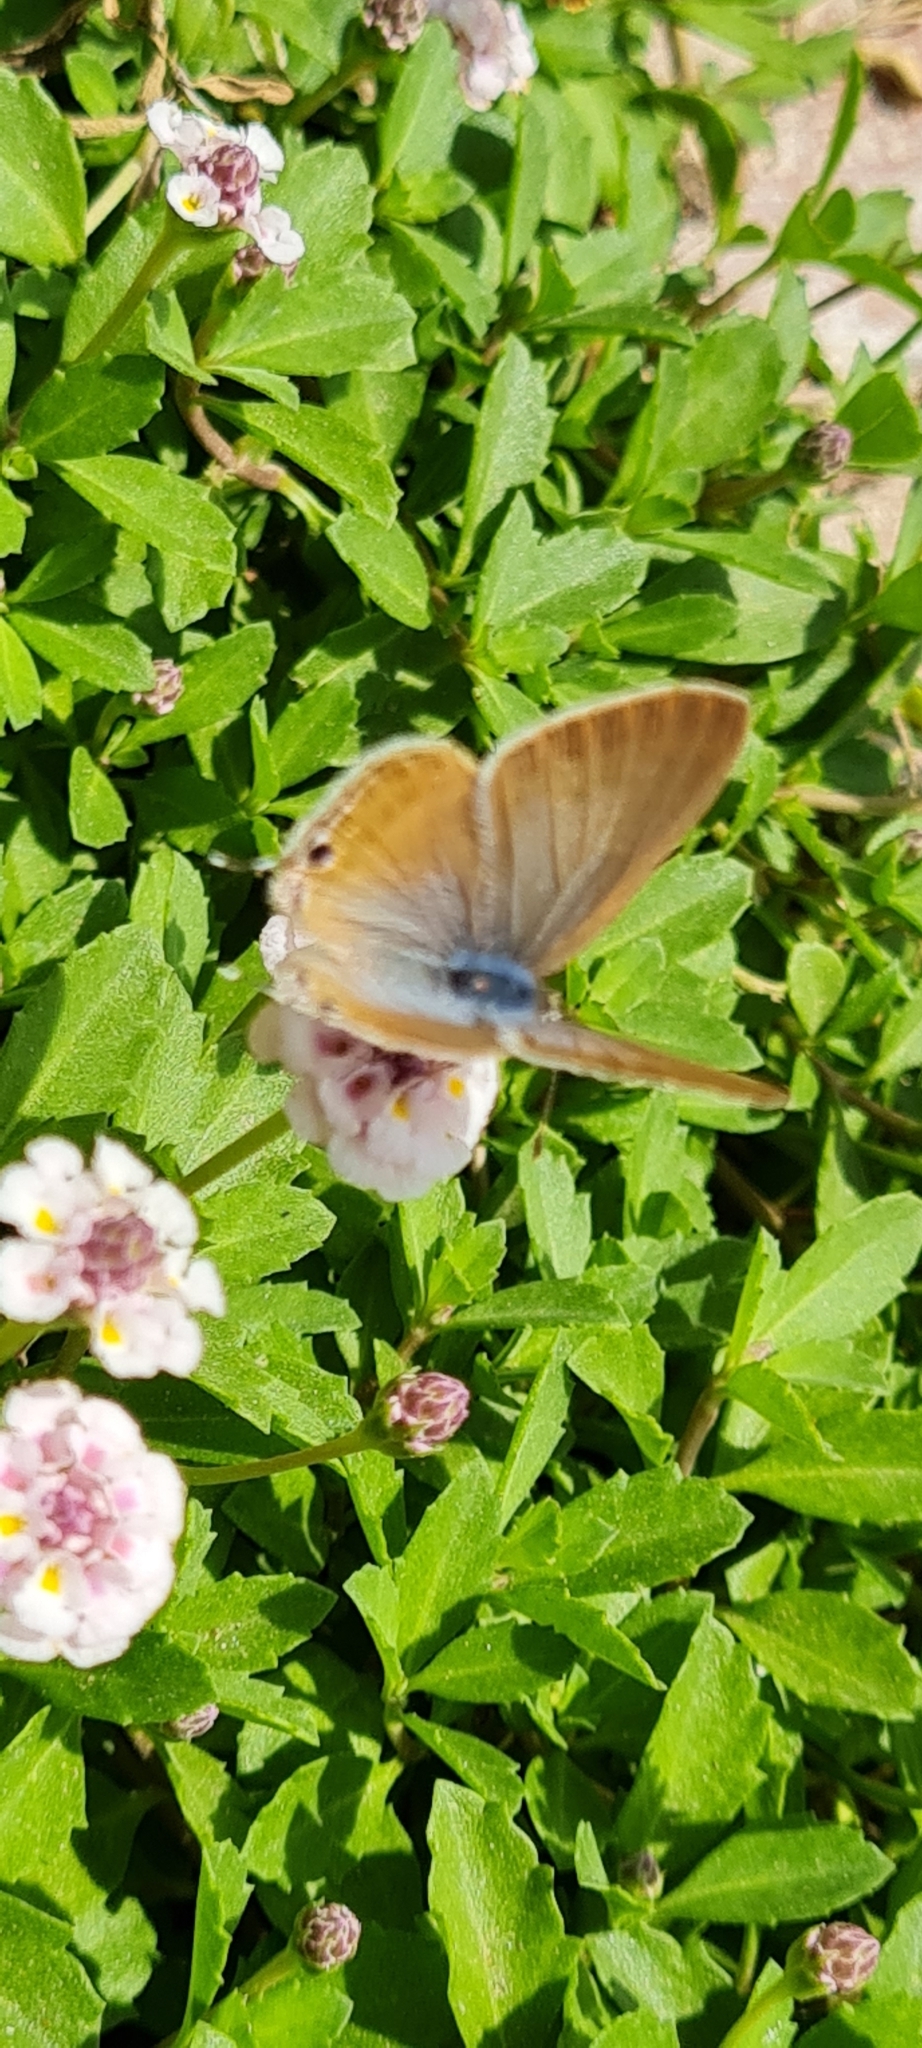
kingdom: Animalia
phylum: Arthropoda
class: Insecta
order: Lepidoptera
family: Lycaenidae
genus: Lampides
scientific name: Lampides boeticus
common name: Long-tailed blue
